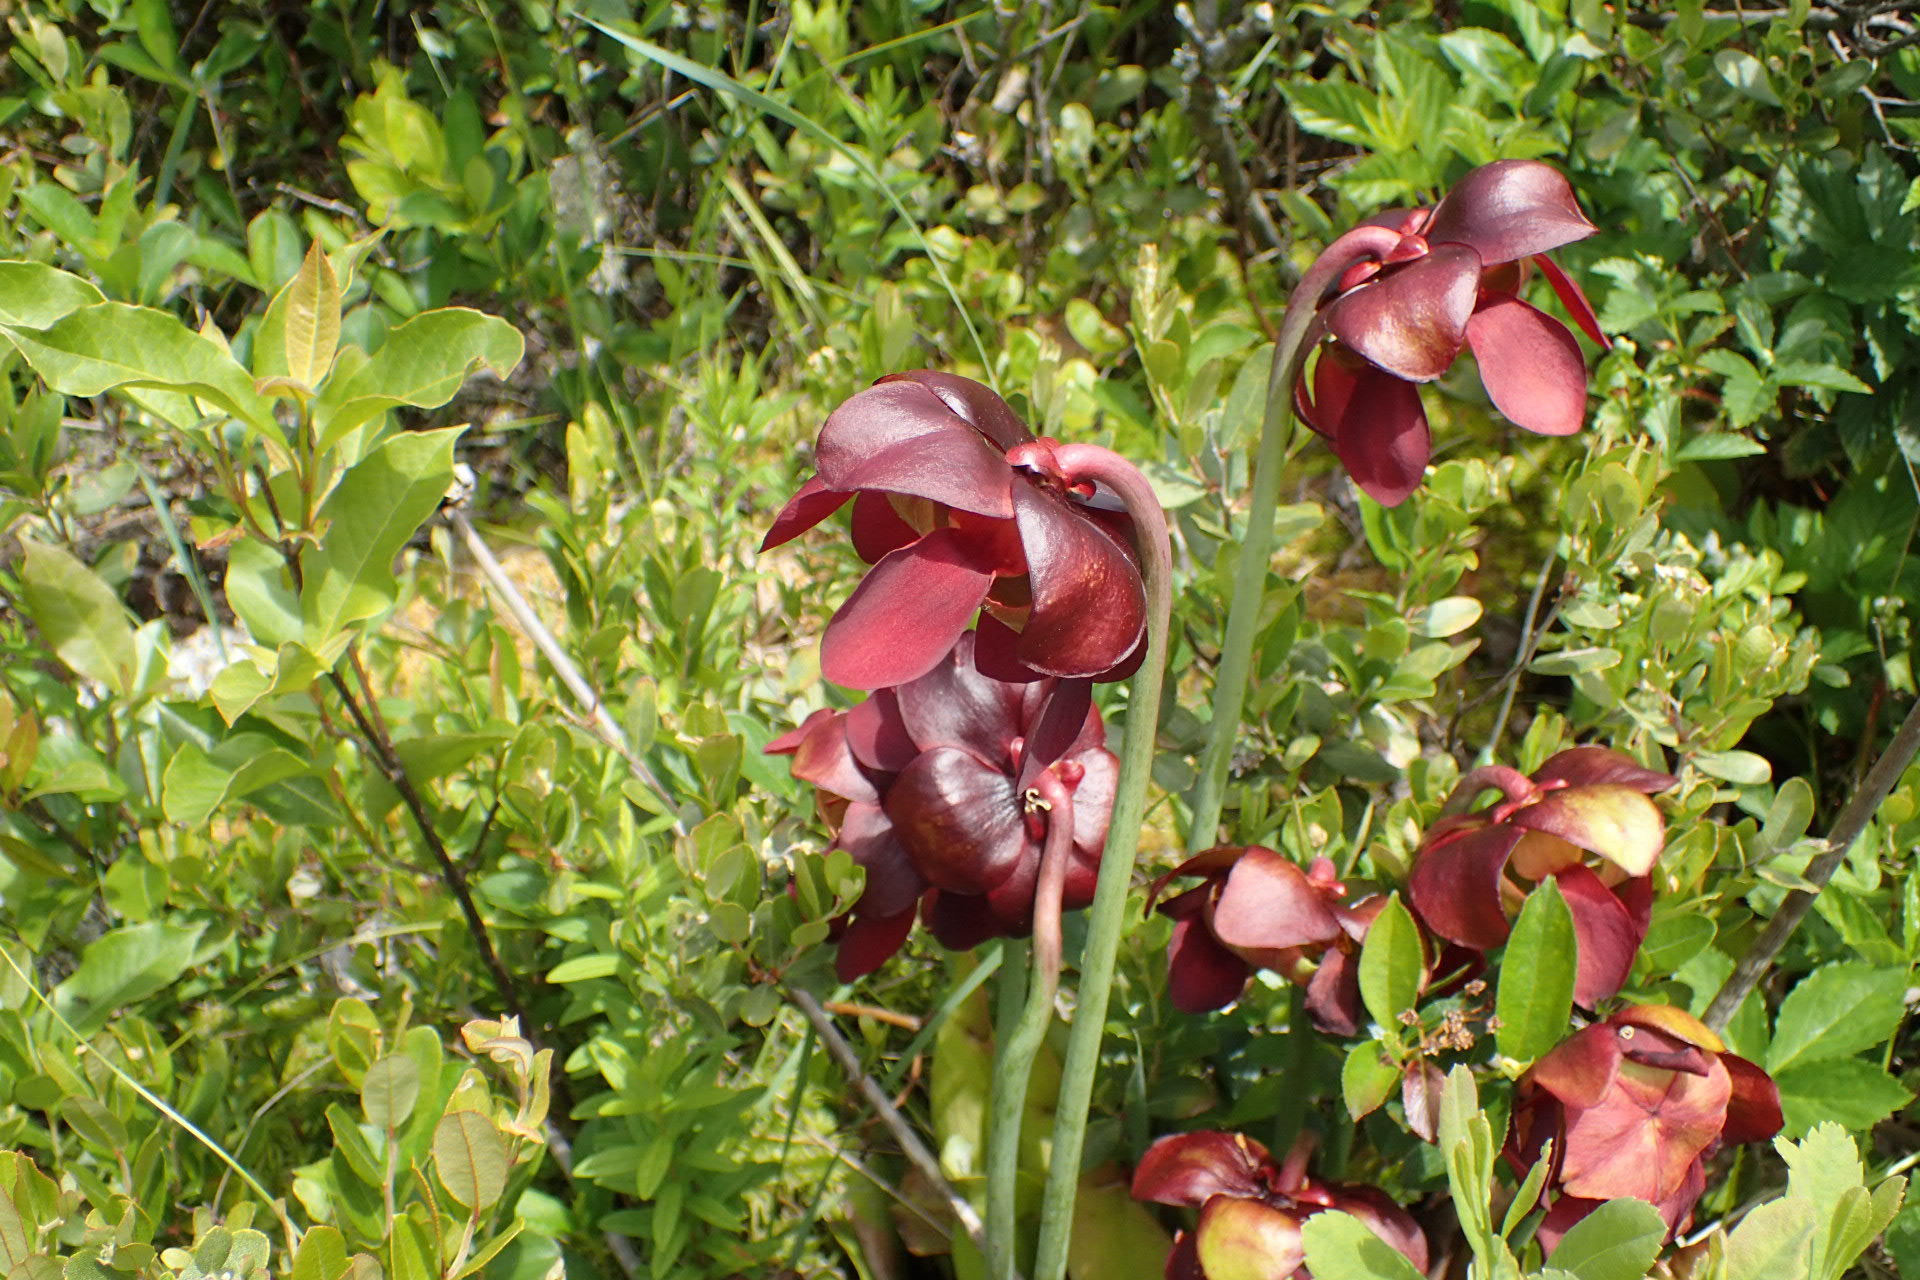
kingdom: Plantae
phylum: Tracheophyta
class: Magnoliopsida
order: Ericales
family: Sarraceniaceae
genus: Sarracenia
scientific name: Sarracenia purpurea
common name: Pitcherplant
